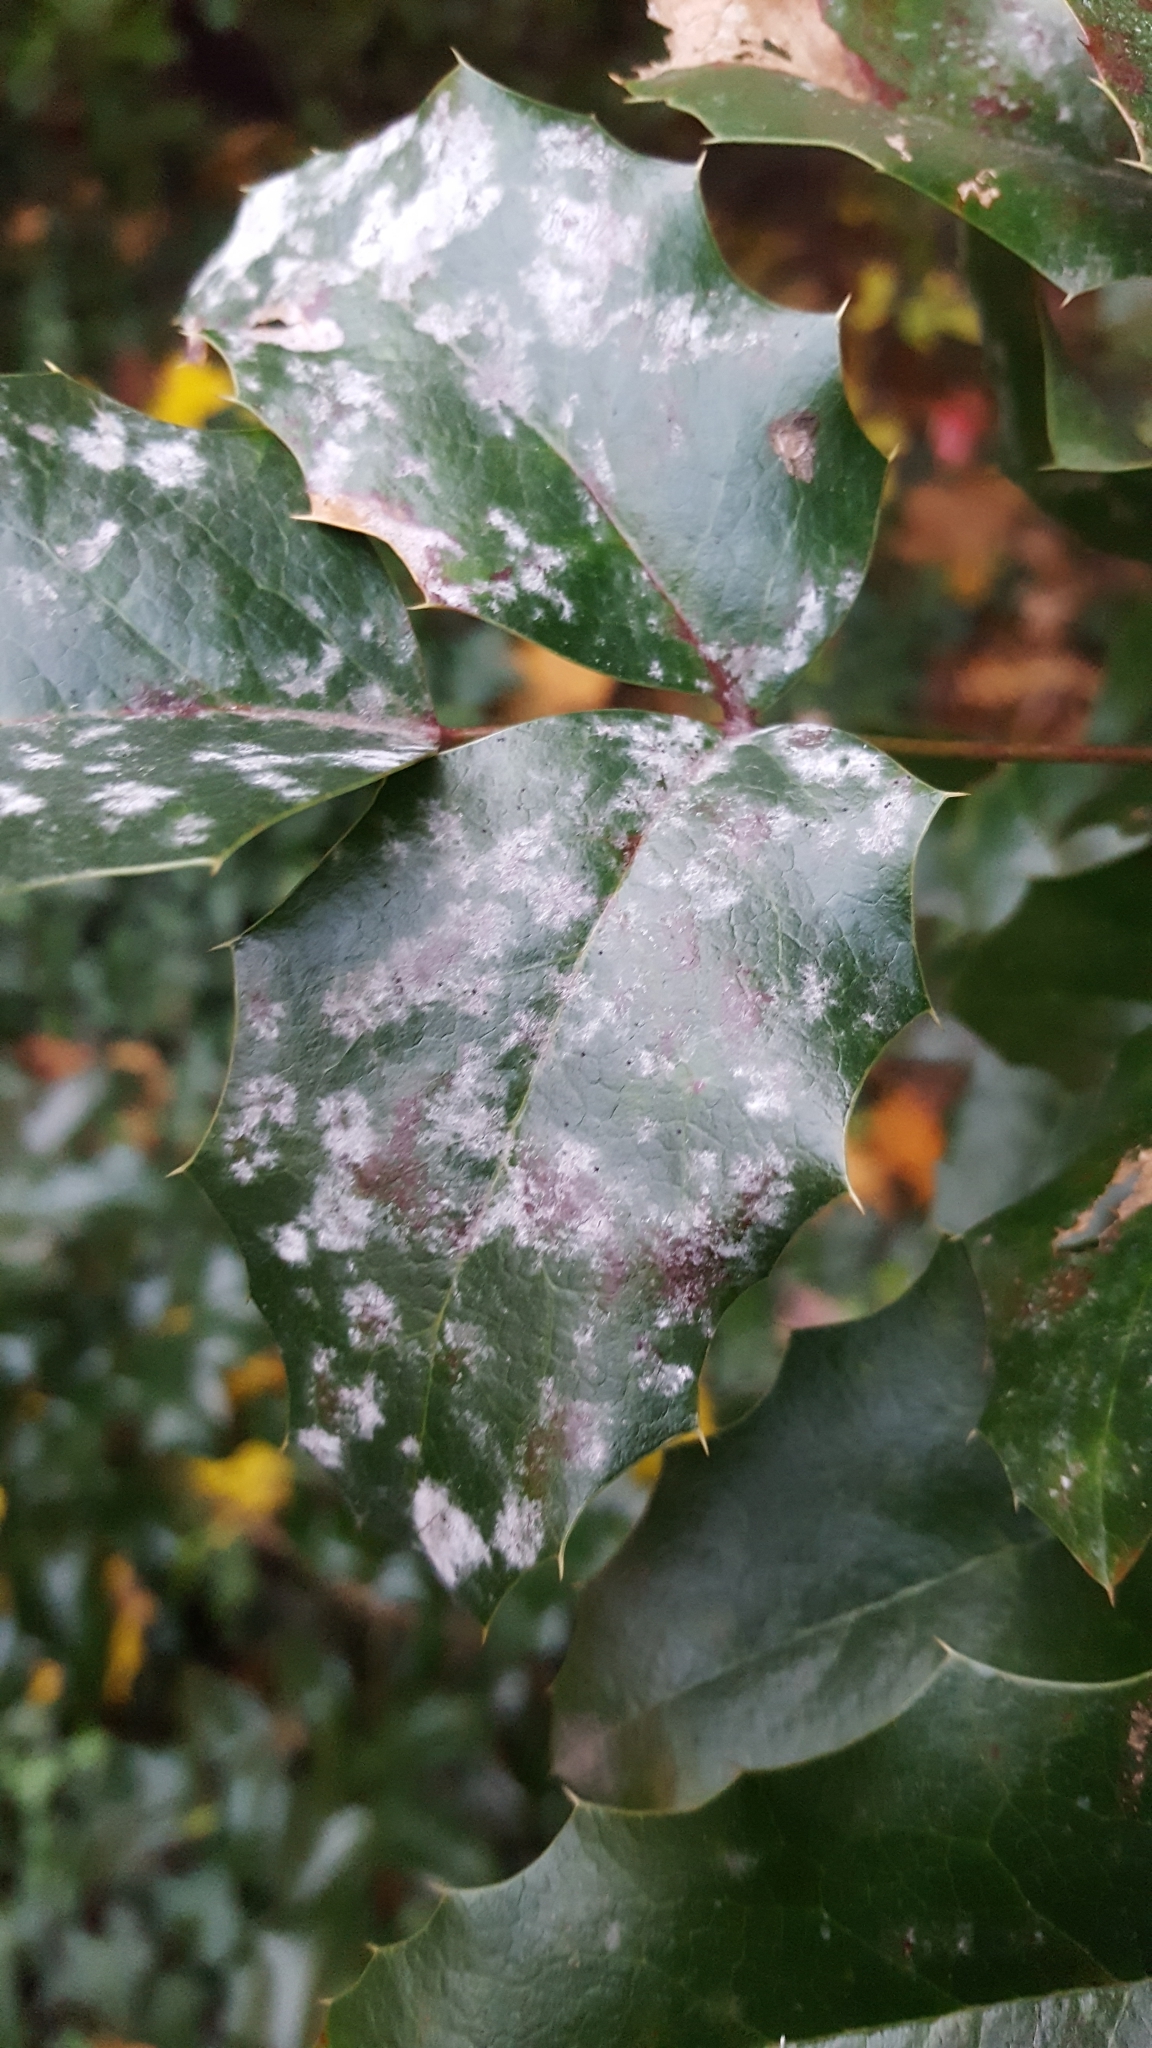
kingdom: Fungi
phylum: Ascomycota
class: Leotiomycetes
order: Helotiales
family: Erysiphaceae
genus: Erysiphe
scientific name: Erysiphe berberidis
